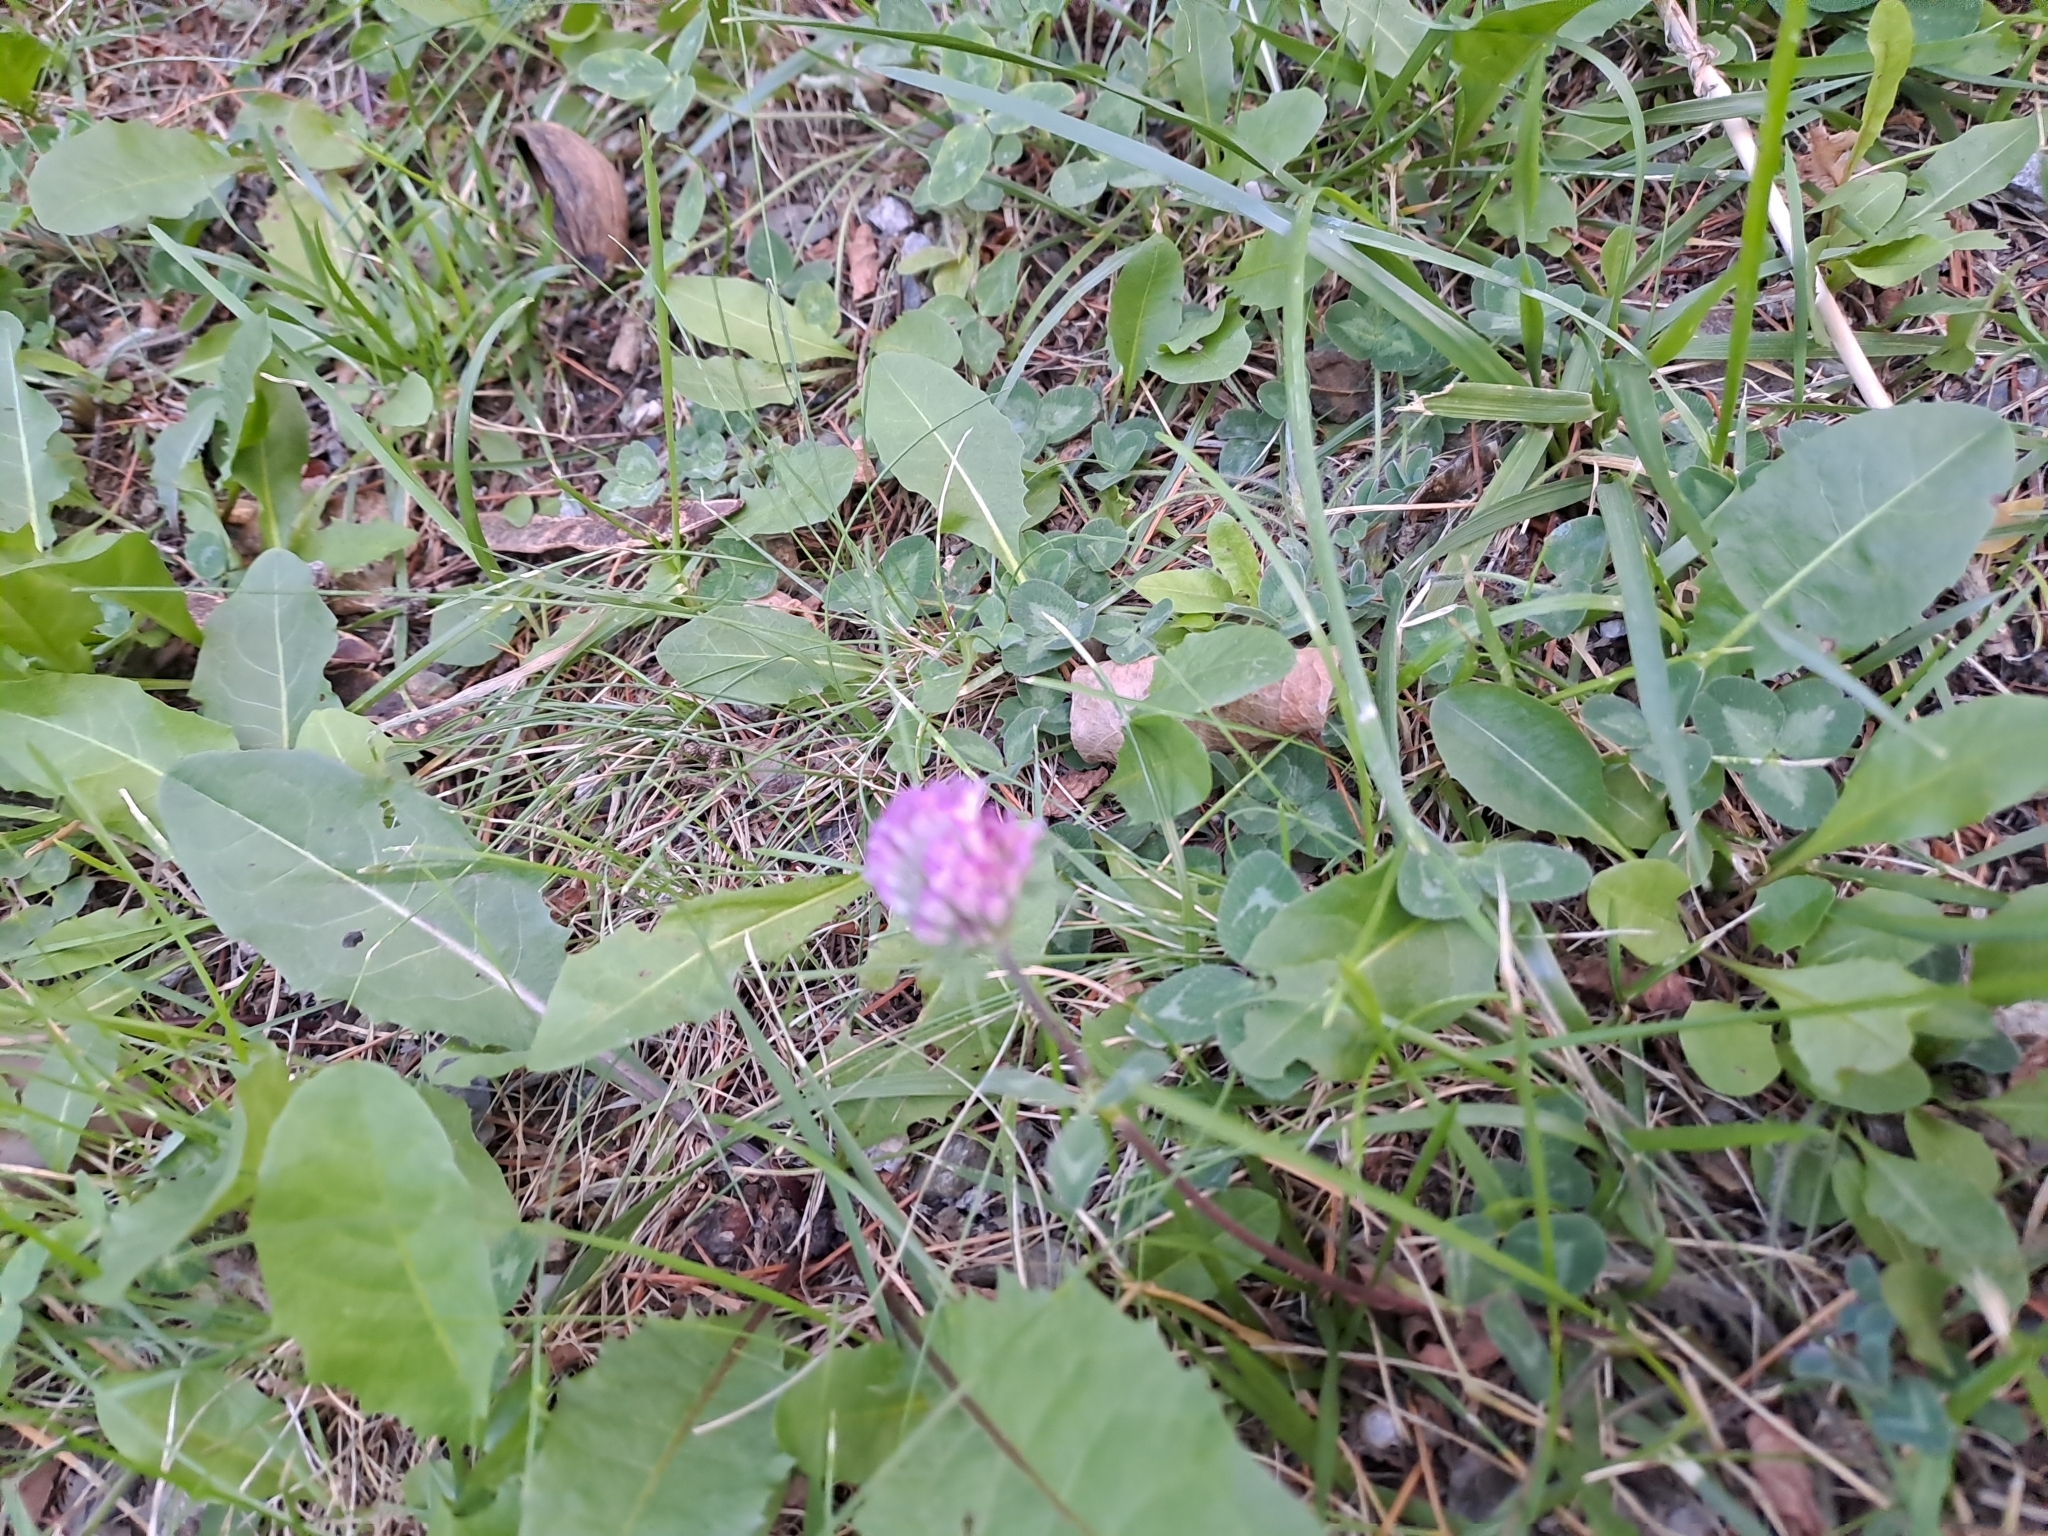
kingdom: Plantae
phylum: Tracheophyta
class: Magnoliopsida
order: Fabales
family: Fabaceae
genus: Trifolium
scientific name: Trifolium pratense
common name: Red clover
